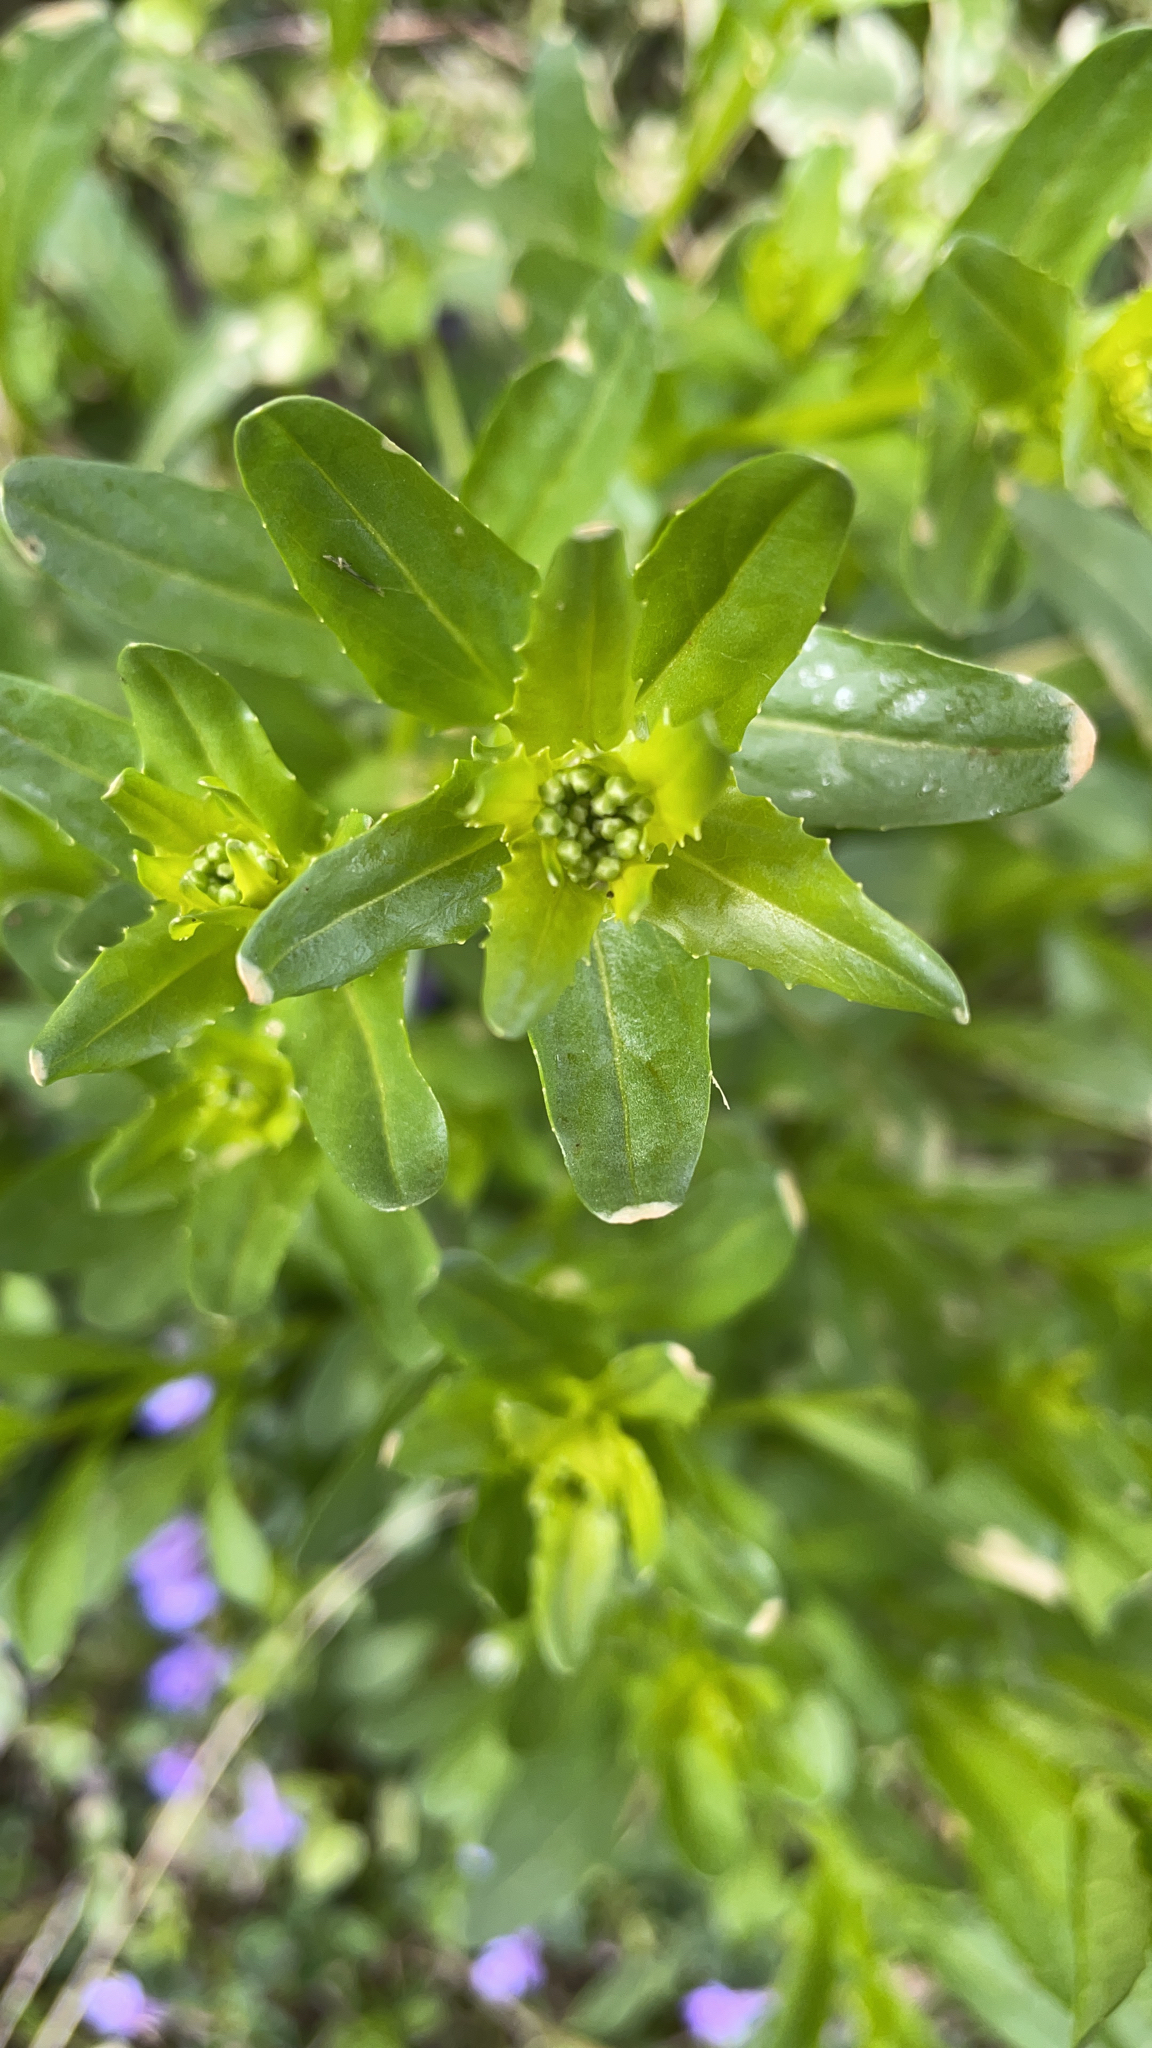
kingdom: Plantae
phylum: Tracheophyta
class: Magnoliopsida
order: Brassicales
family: Brassicaceae
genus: Thlaspi
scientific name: Thlaspi arvense
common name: Field pennycress
